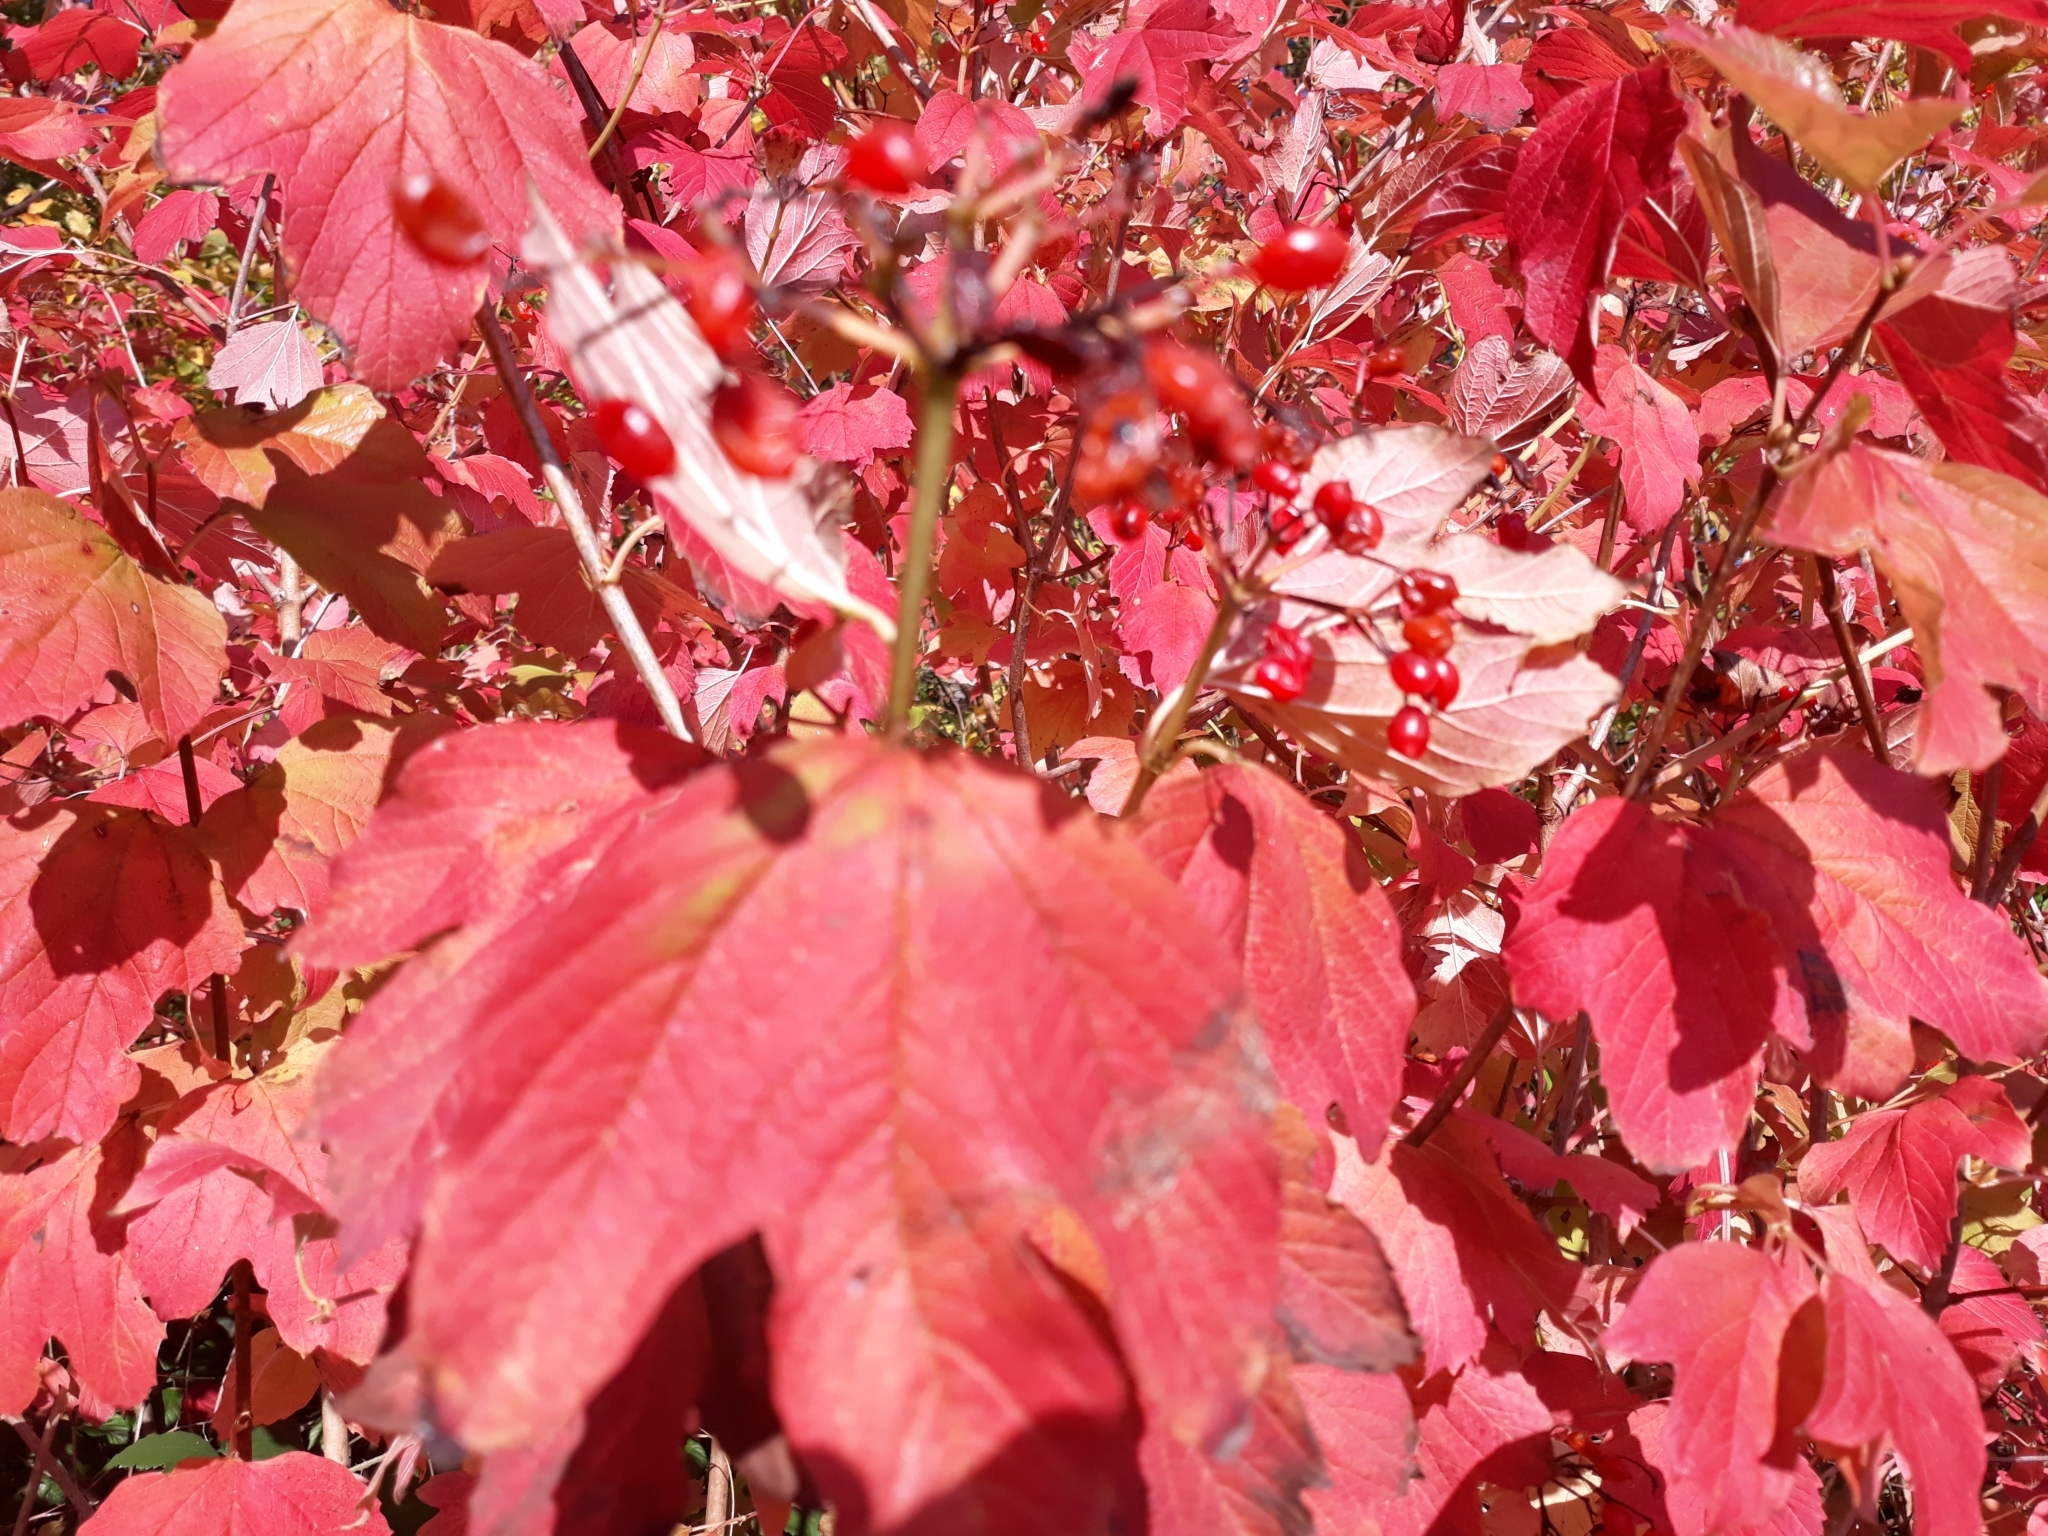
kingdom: Plantae
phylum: Tracheophyta
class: Magnoliopsida
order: Dipsacales
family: Viburnaceae
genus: Viburnum
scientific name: Viburnum opulus
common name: Guelder-rose
